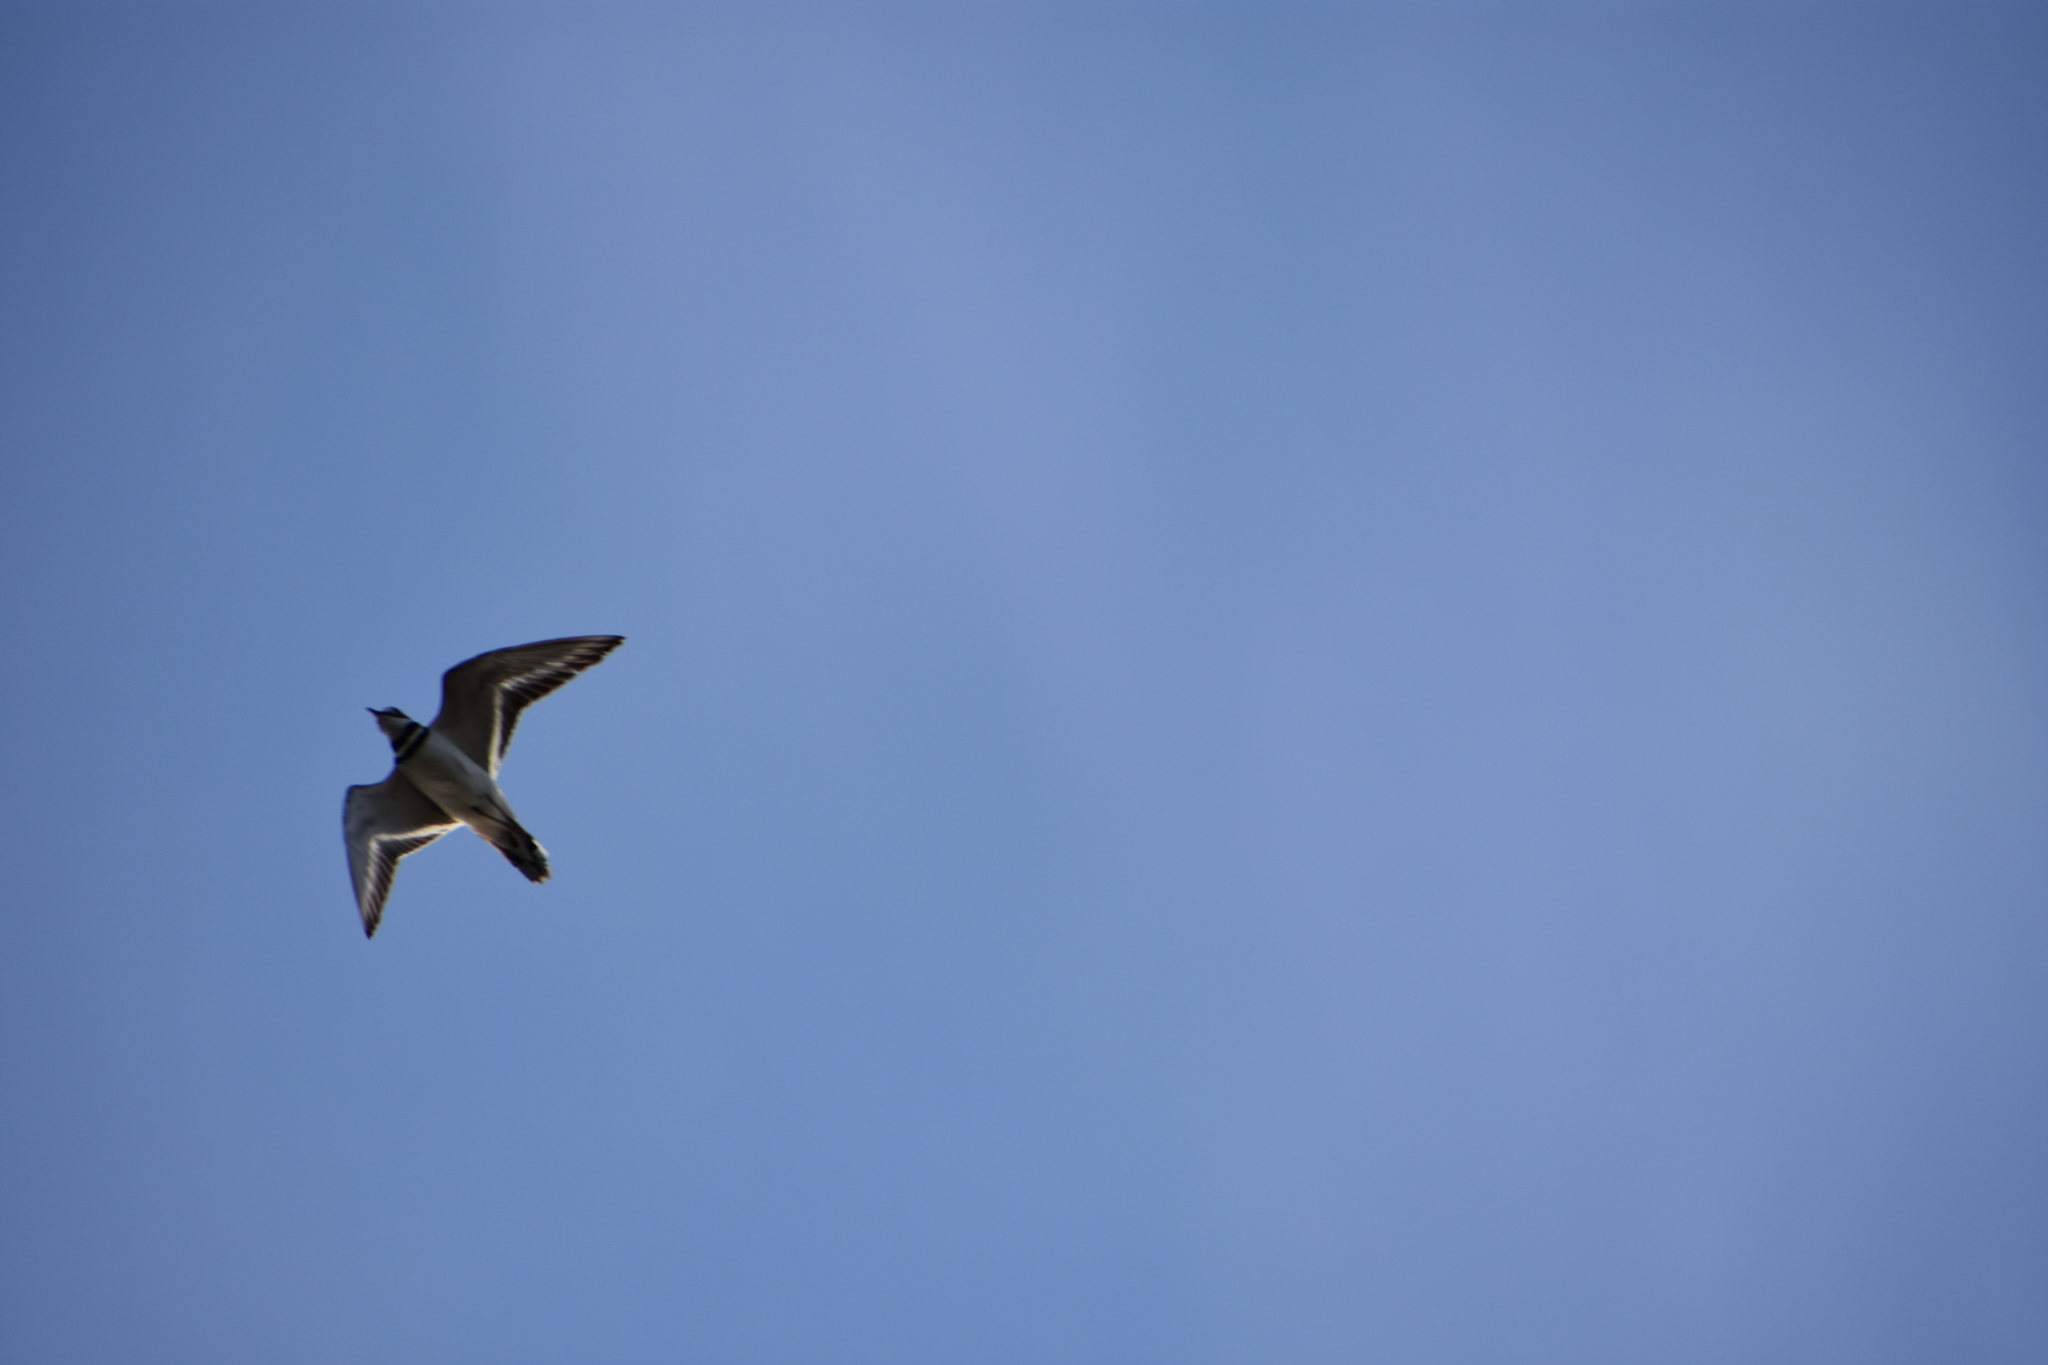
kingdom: Animalia
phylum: Chordata
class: Aves
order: Charadriiformes
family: Charadriidae
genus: Charadrius
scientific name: Charadrius vociferus
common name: Killdeer
